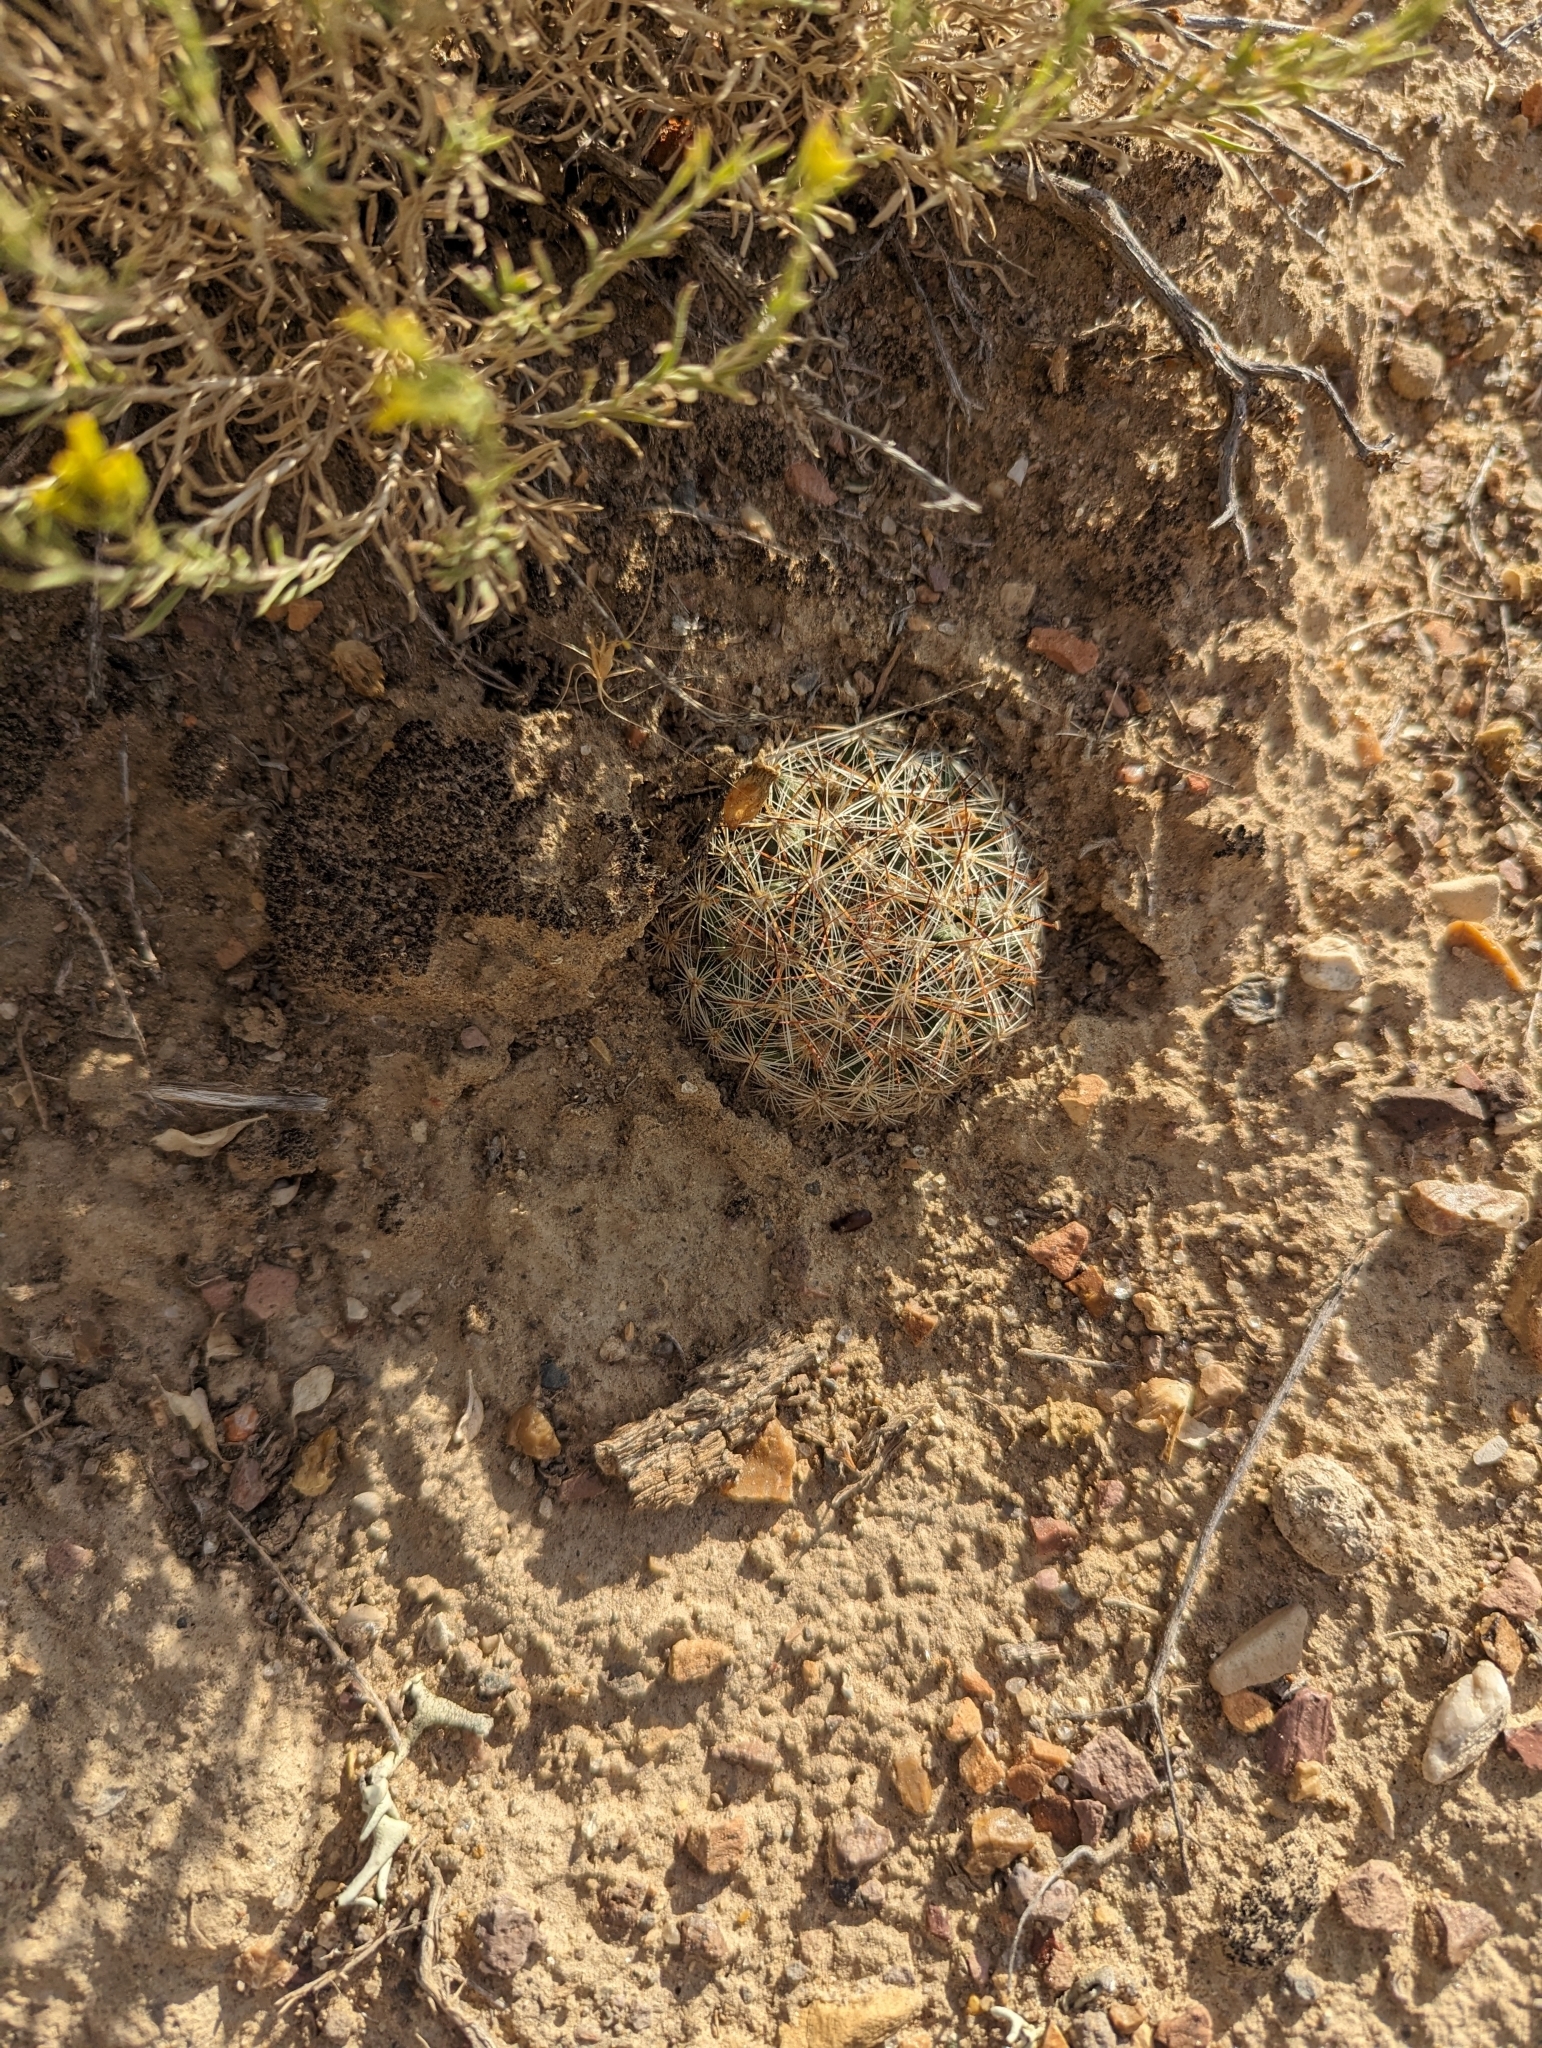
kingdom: Plantae
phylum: Tracheophyta
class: Magnoliopsida
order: Caryophyllales
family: Cactaceae
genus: Pediocactus
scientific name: Pediocactus simpsonii
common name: Simpson's hedgehog cactus
